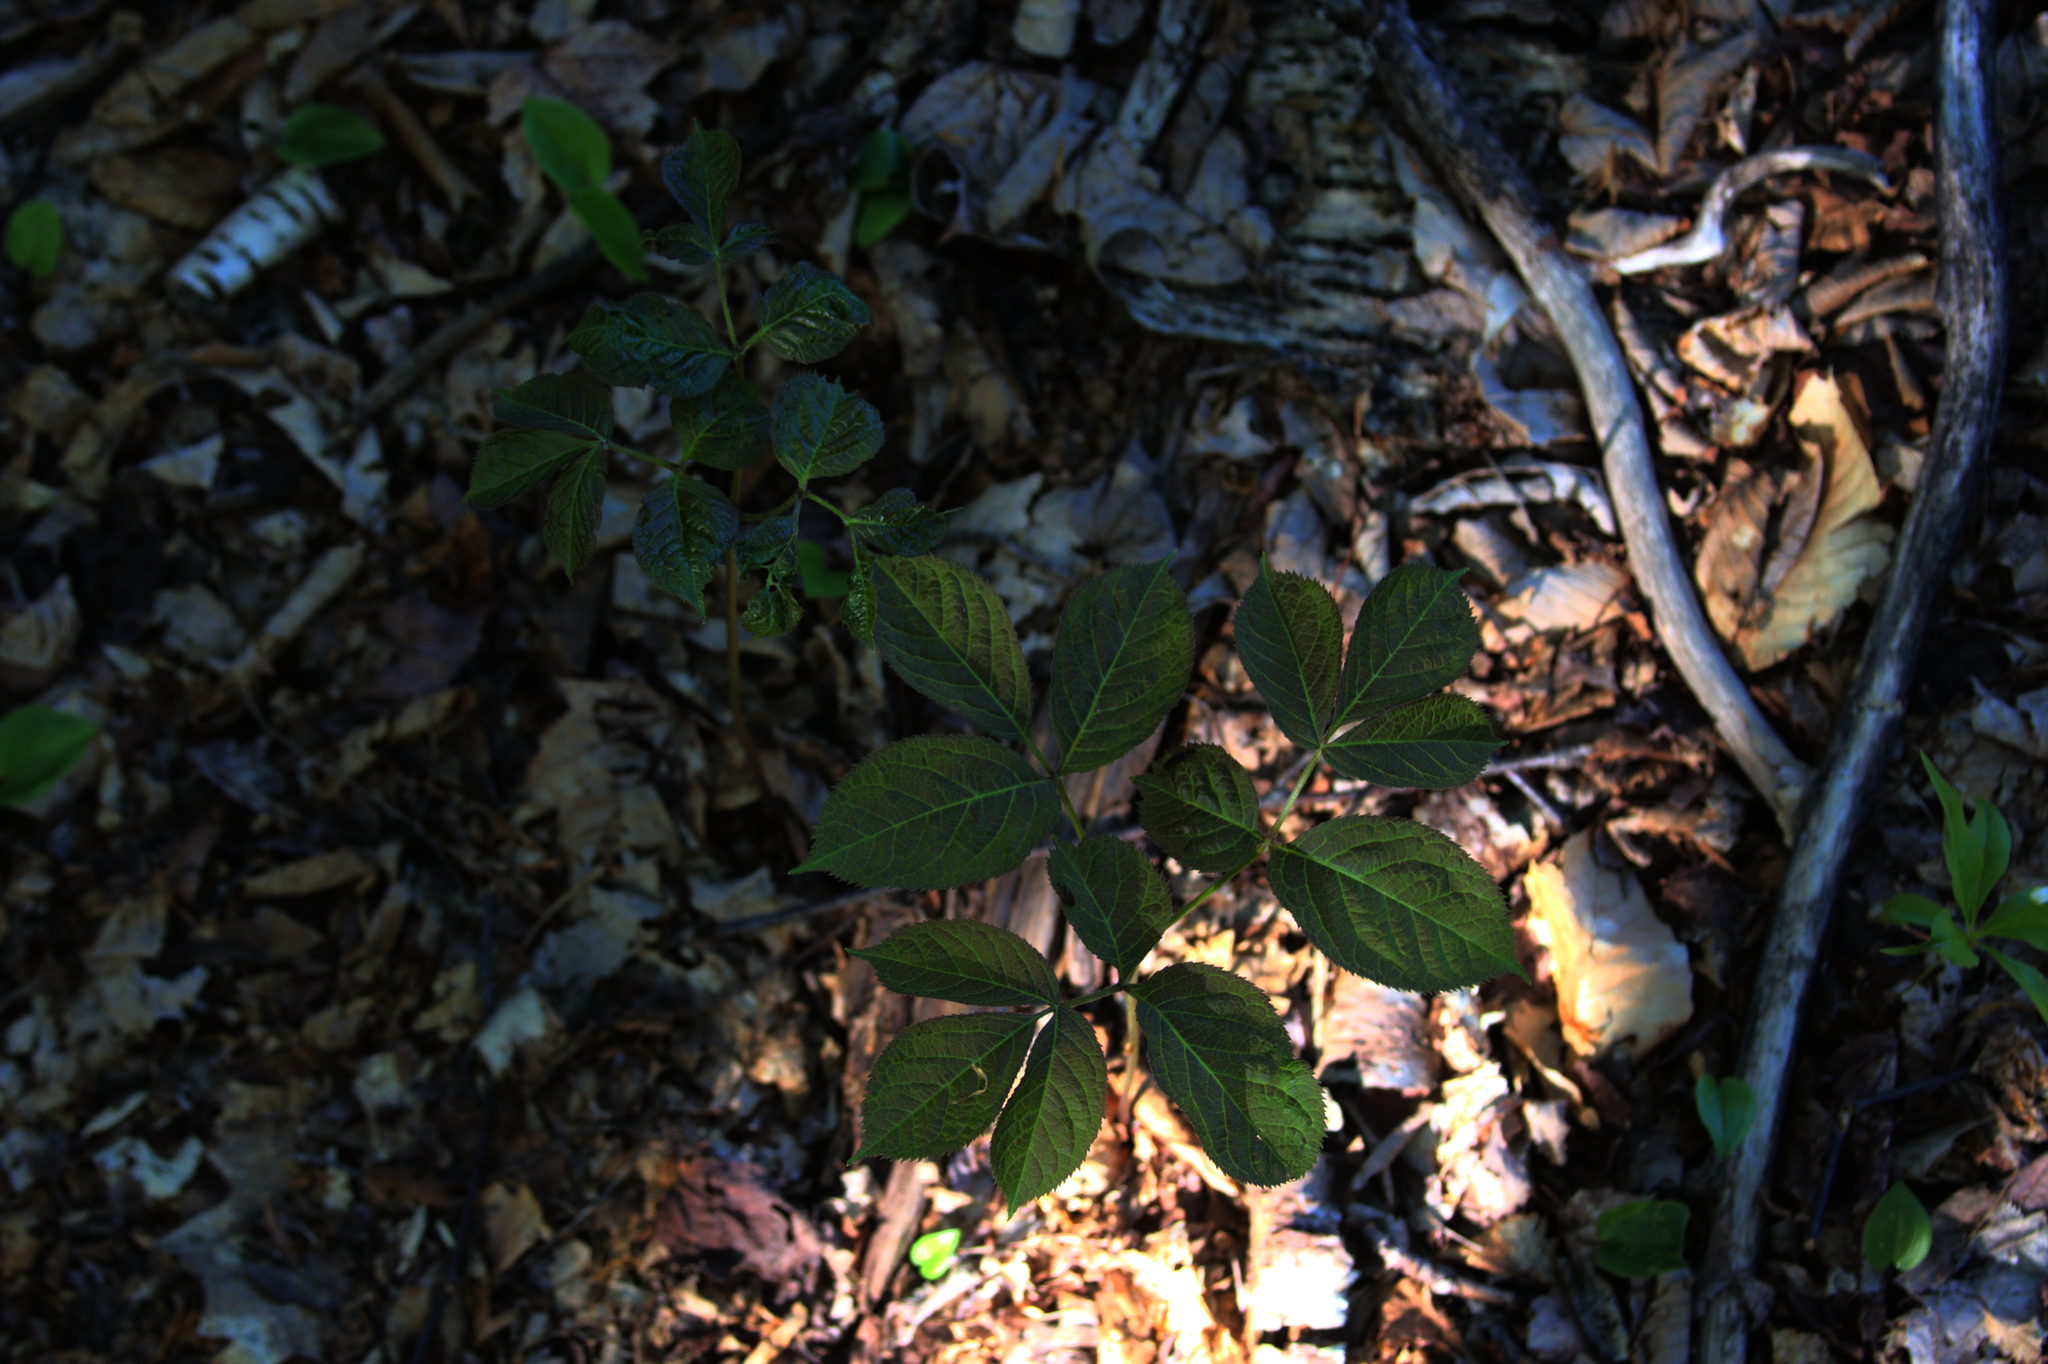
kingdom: Plantae
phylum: Tracheophyta
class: Magnoliopsida
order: Apiales
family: Araliaceae
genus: Aralia
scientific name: Aralia nudicaulis
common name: Wild sarsaparilla
